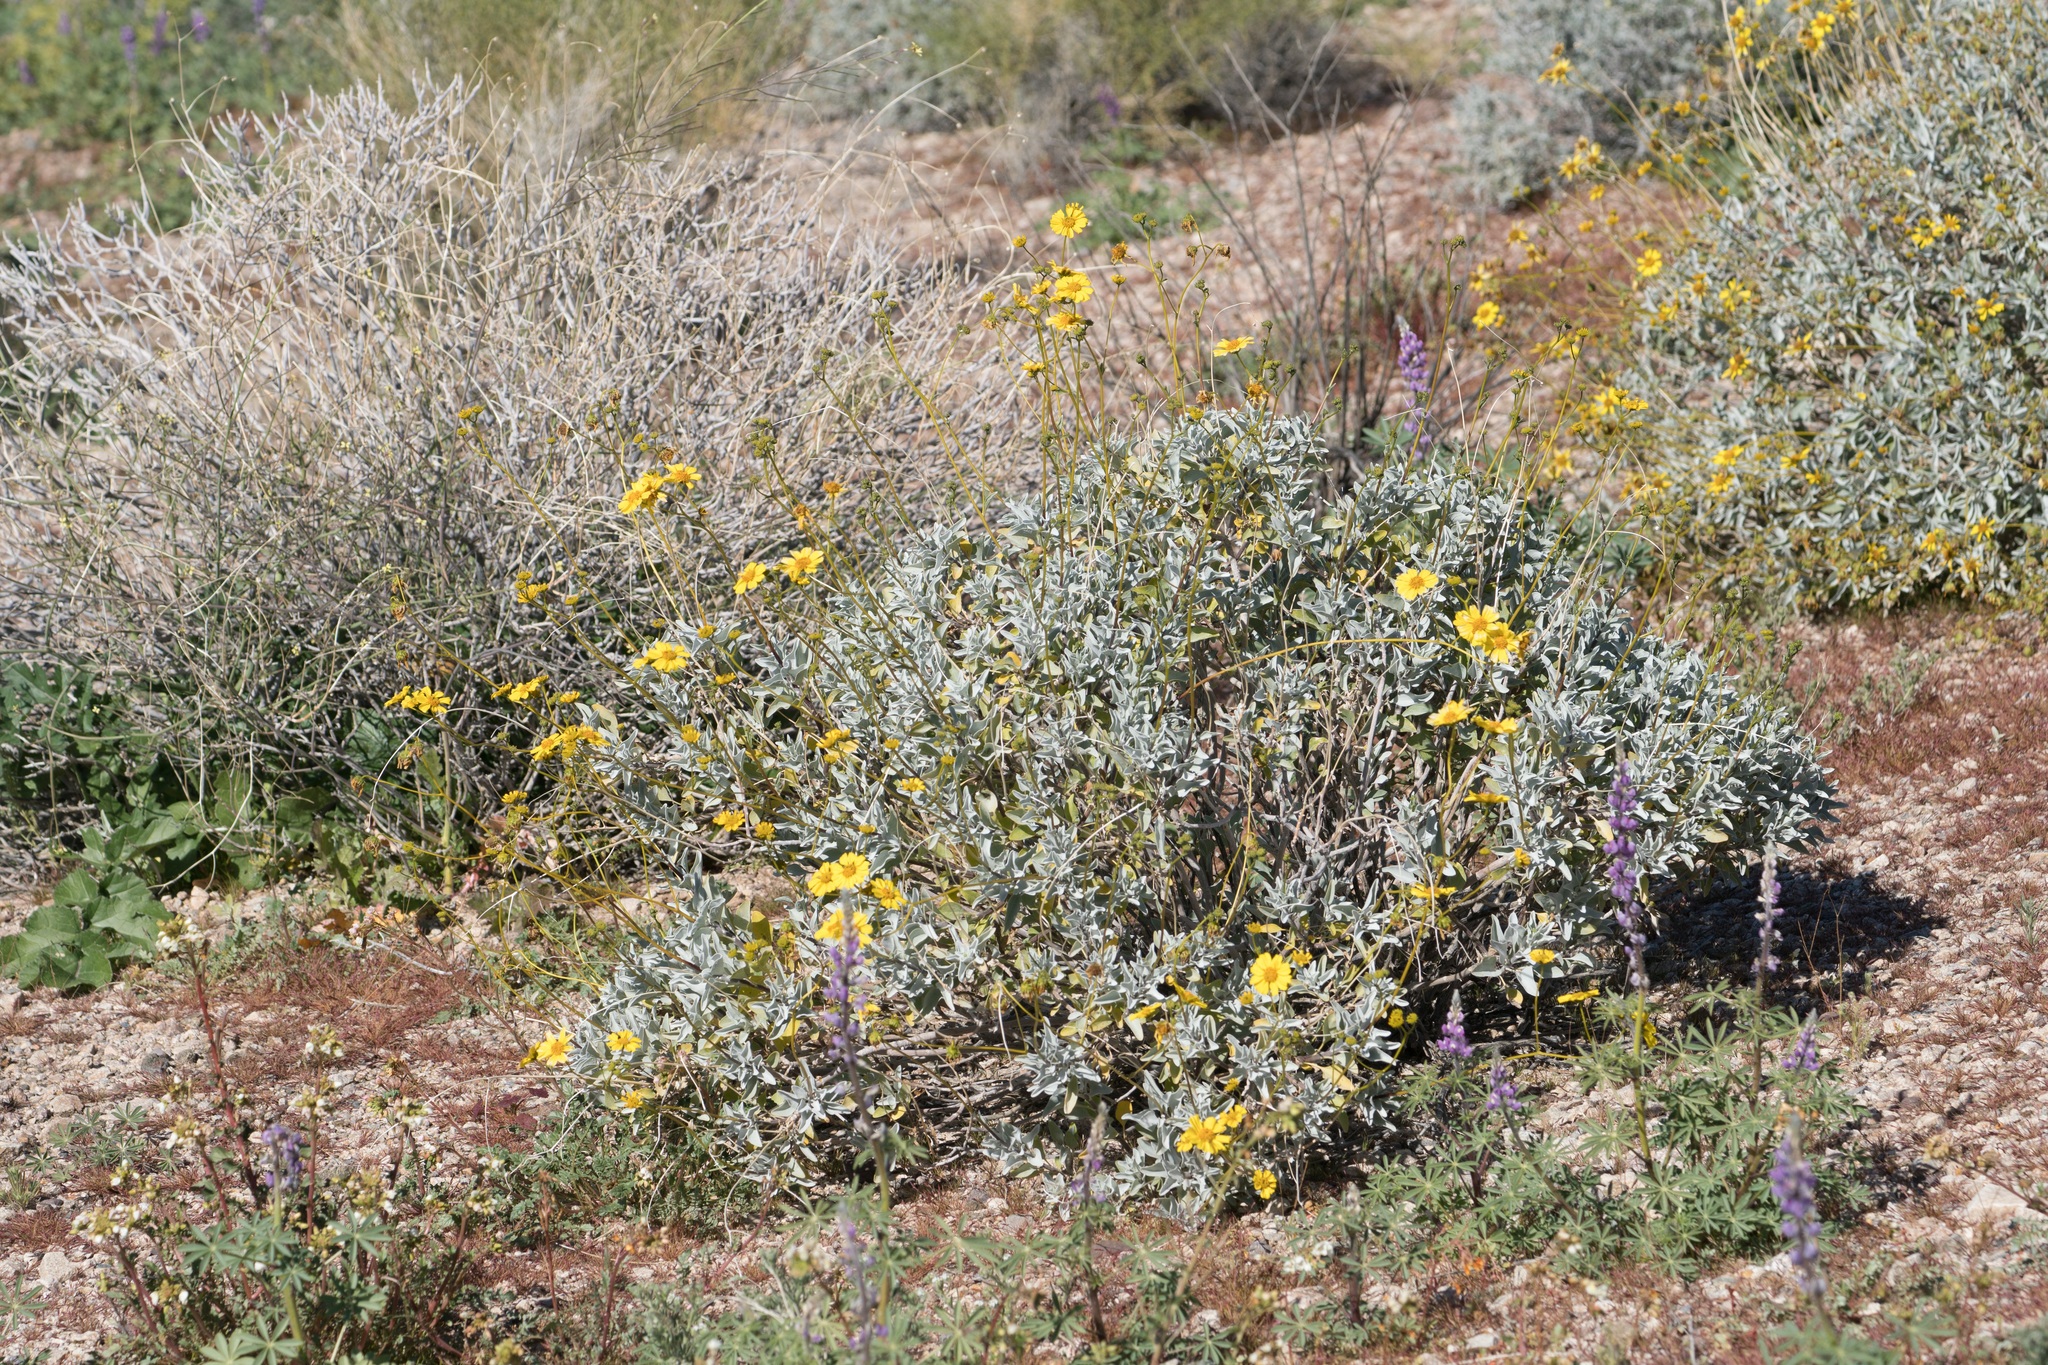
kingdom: Plantae
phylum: Tracheophyta
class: Magnoliopsida
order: Asterales
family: Asteraceae
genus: Encelia
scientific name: Encelia farinosa
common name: Brittlebush
